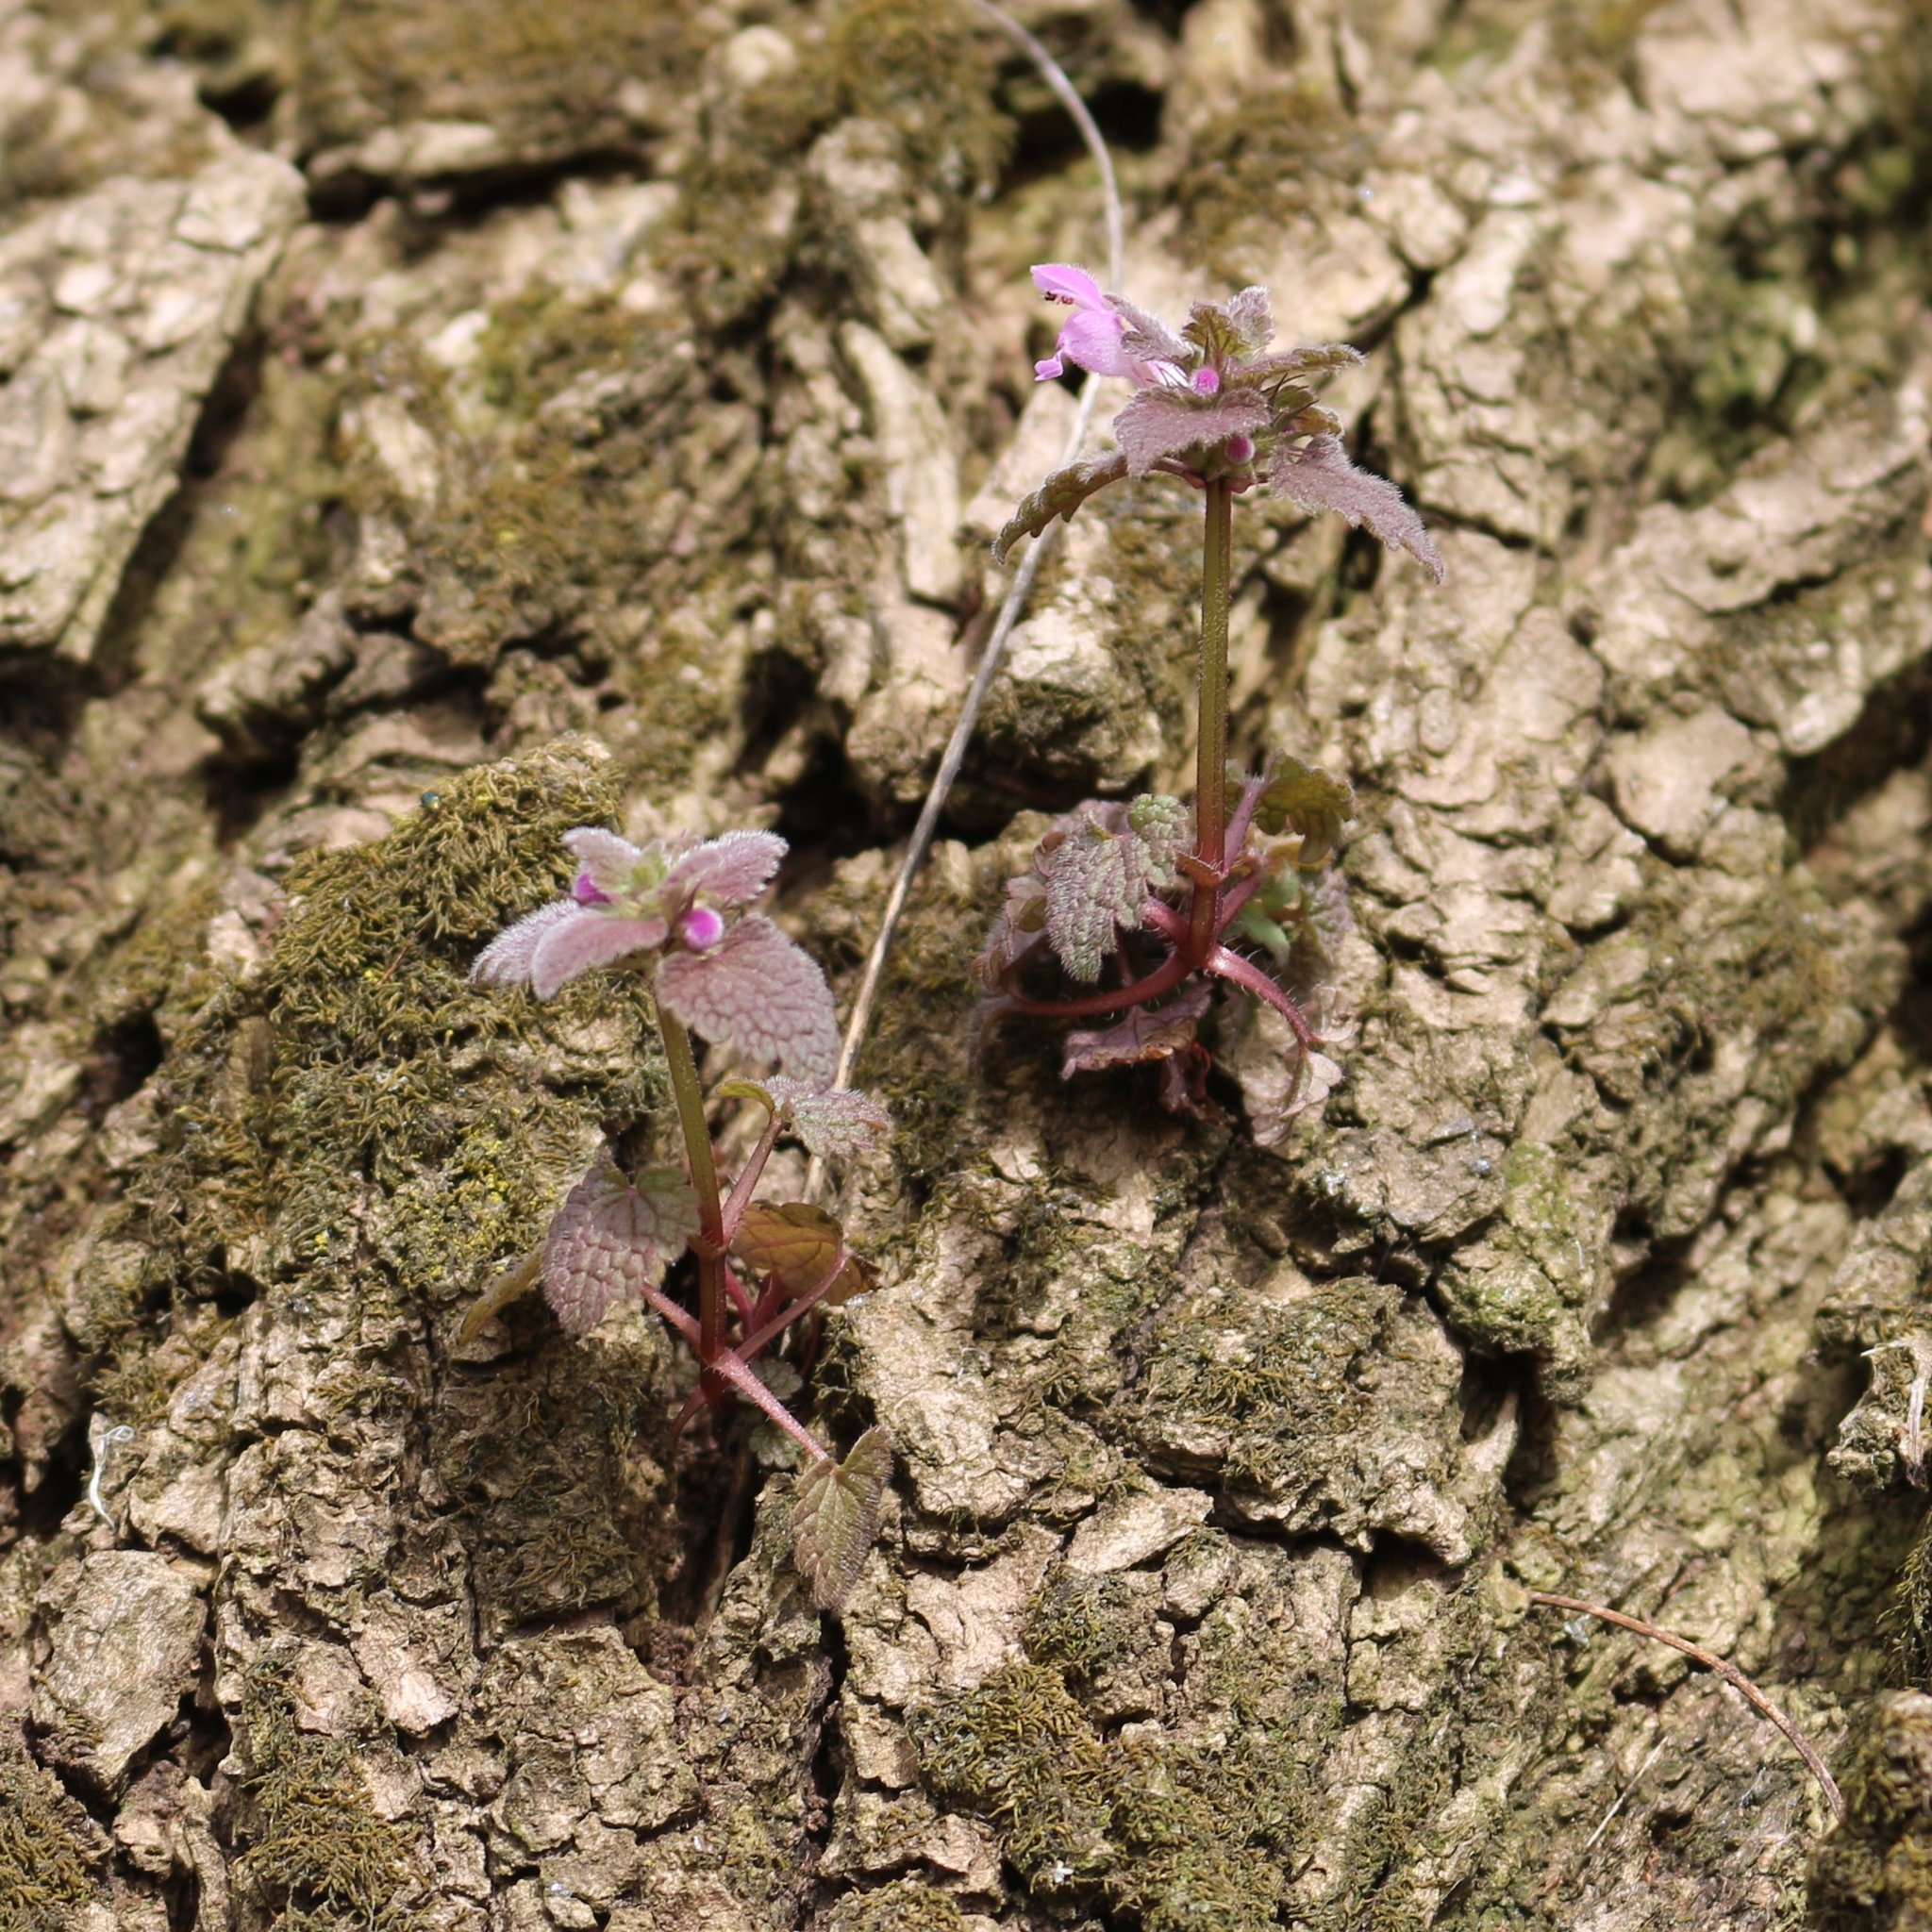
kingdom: Plantae
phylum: Tracheophyta
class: Magnoliopsida
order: Lamiales
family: Lamiaceae
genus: Lamium
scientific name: Lamium purpureum
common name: Red dead-nettle
